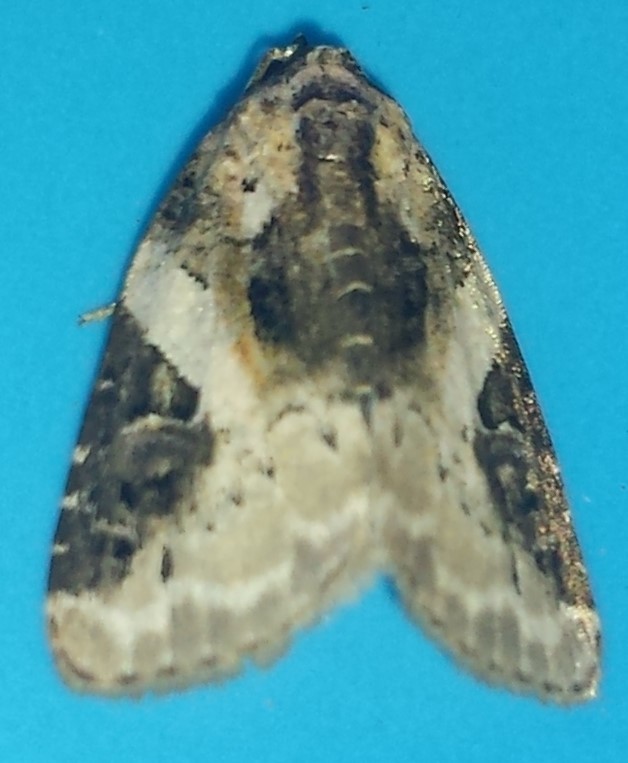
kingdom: Animalia
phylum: Arthropoda
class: Insecta
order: Lepidoptera
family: Noctuidae
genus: Pseudeustrotia
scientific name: Pseudeustrotia carneola
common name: Pink-barred lithacodia moth
